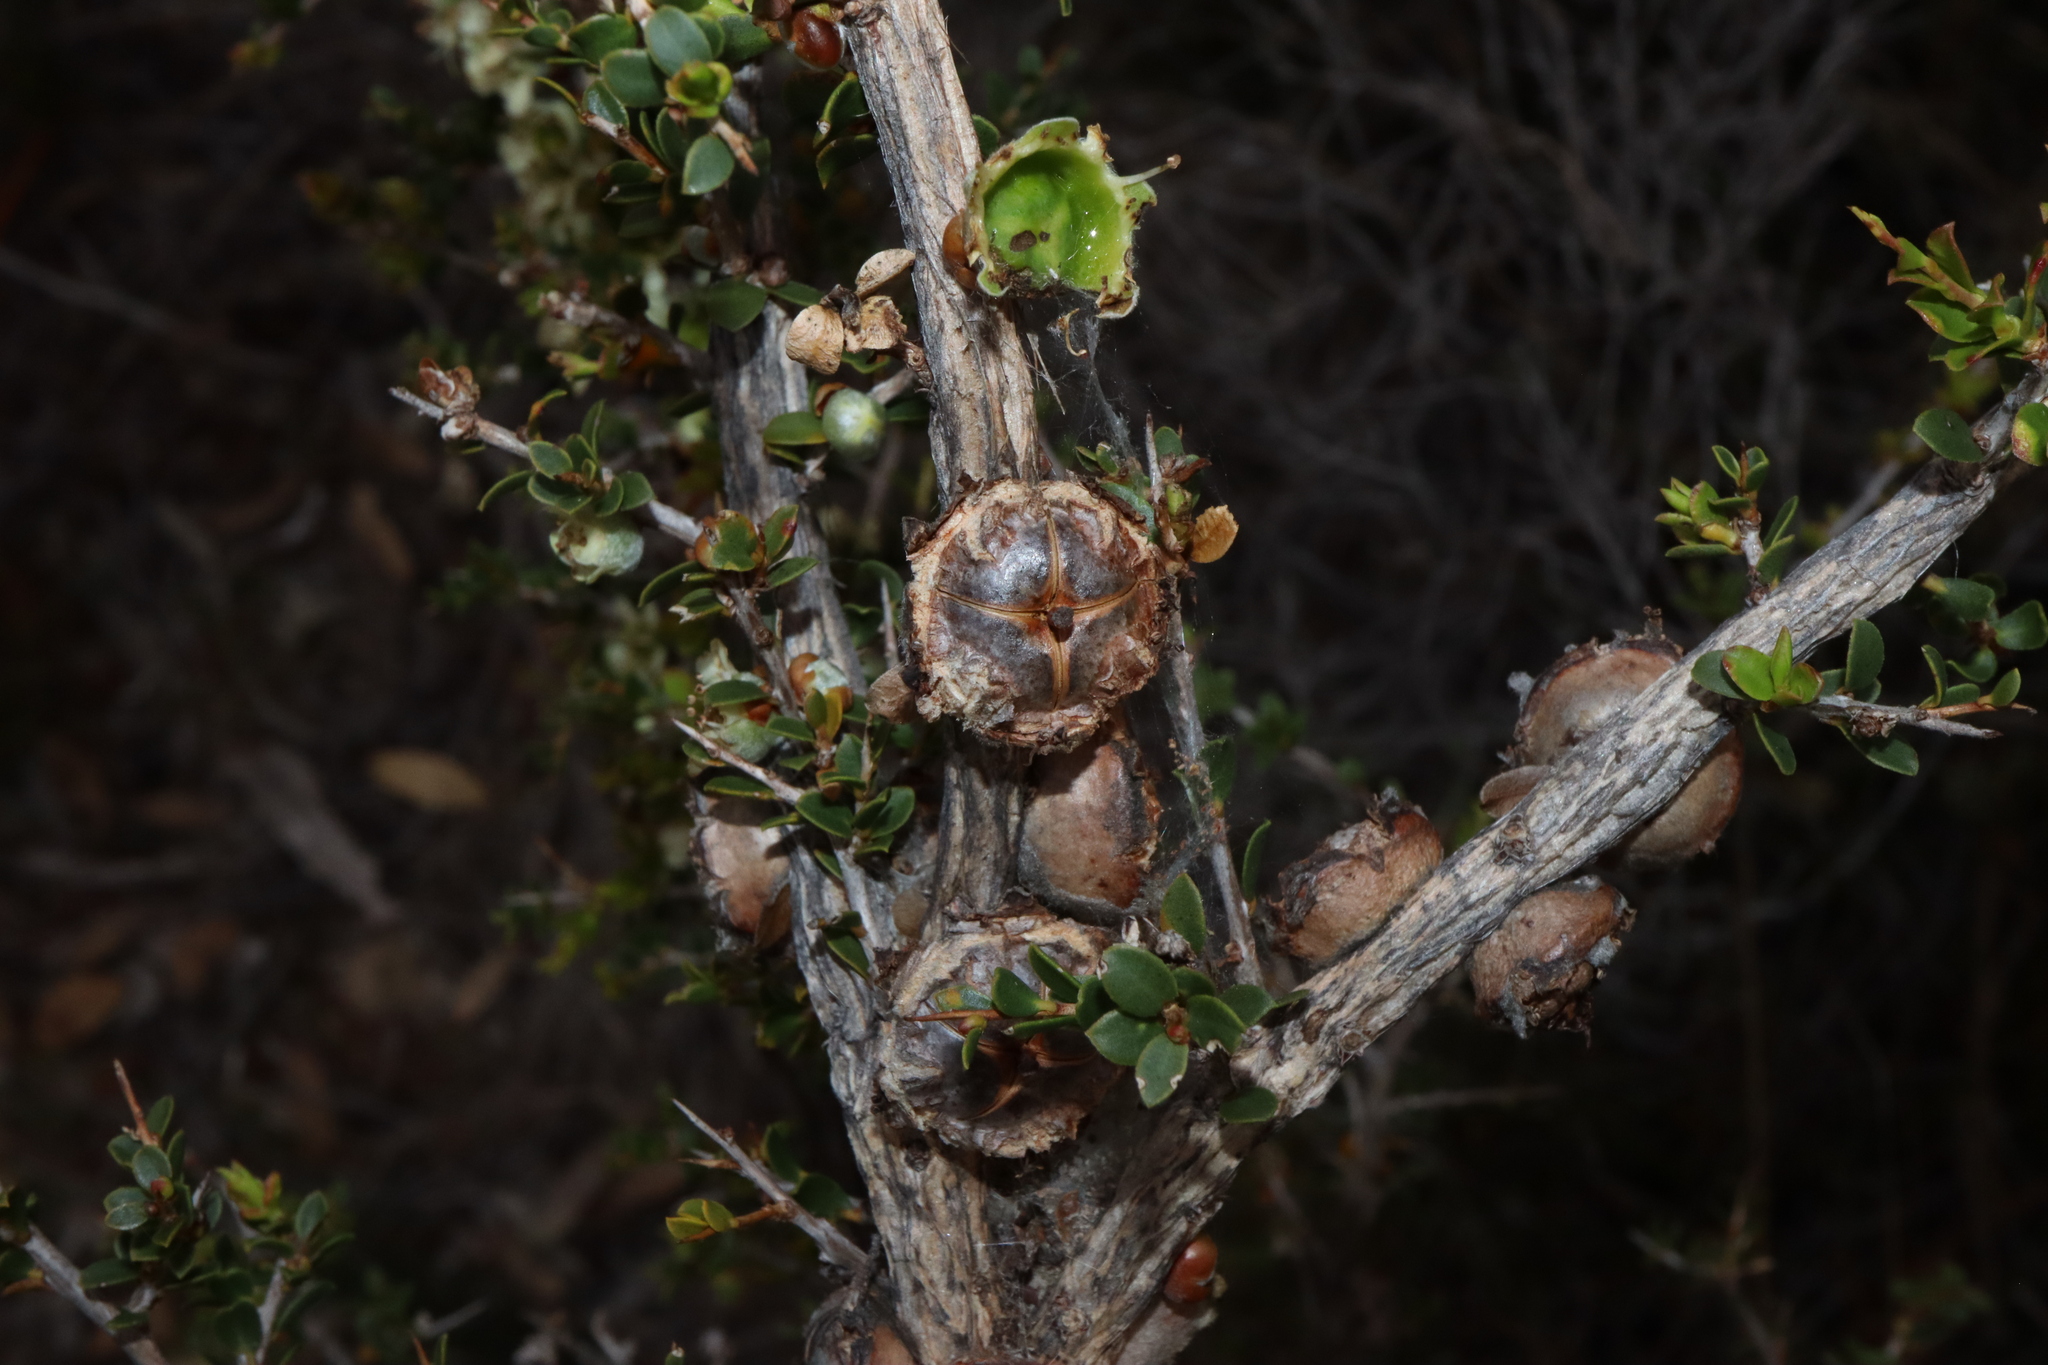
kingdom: Plantae
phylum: Tracheophyta
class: Magnoliopsida
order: Myrtales
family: Myrtaceae
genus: Leptospermum
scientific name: Leptospermum spinescens
